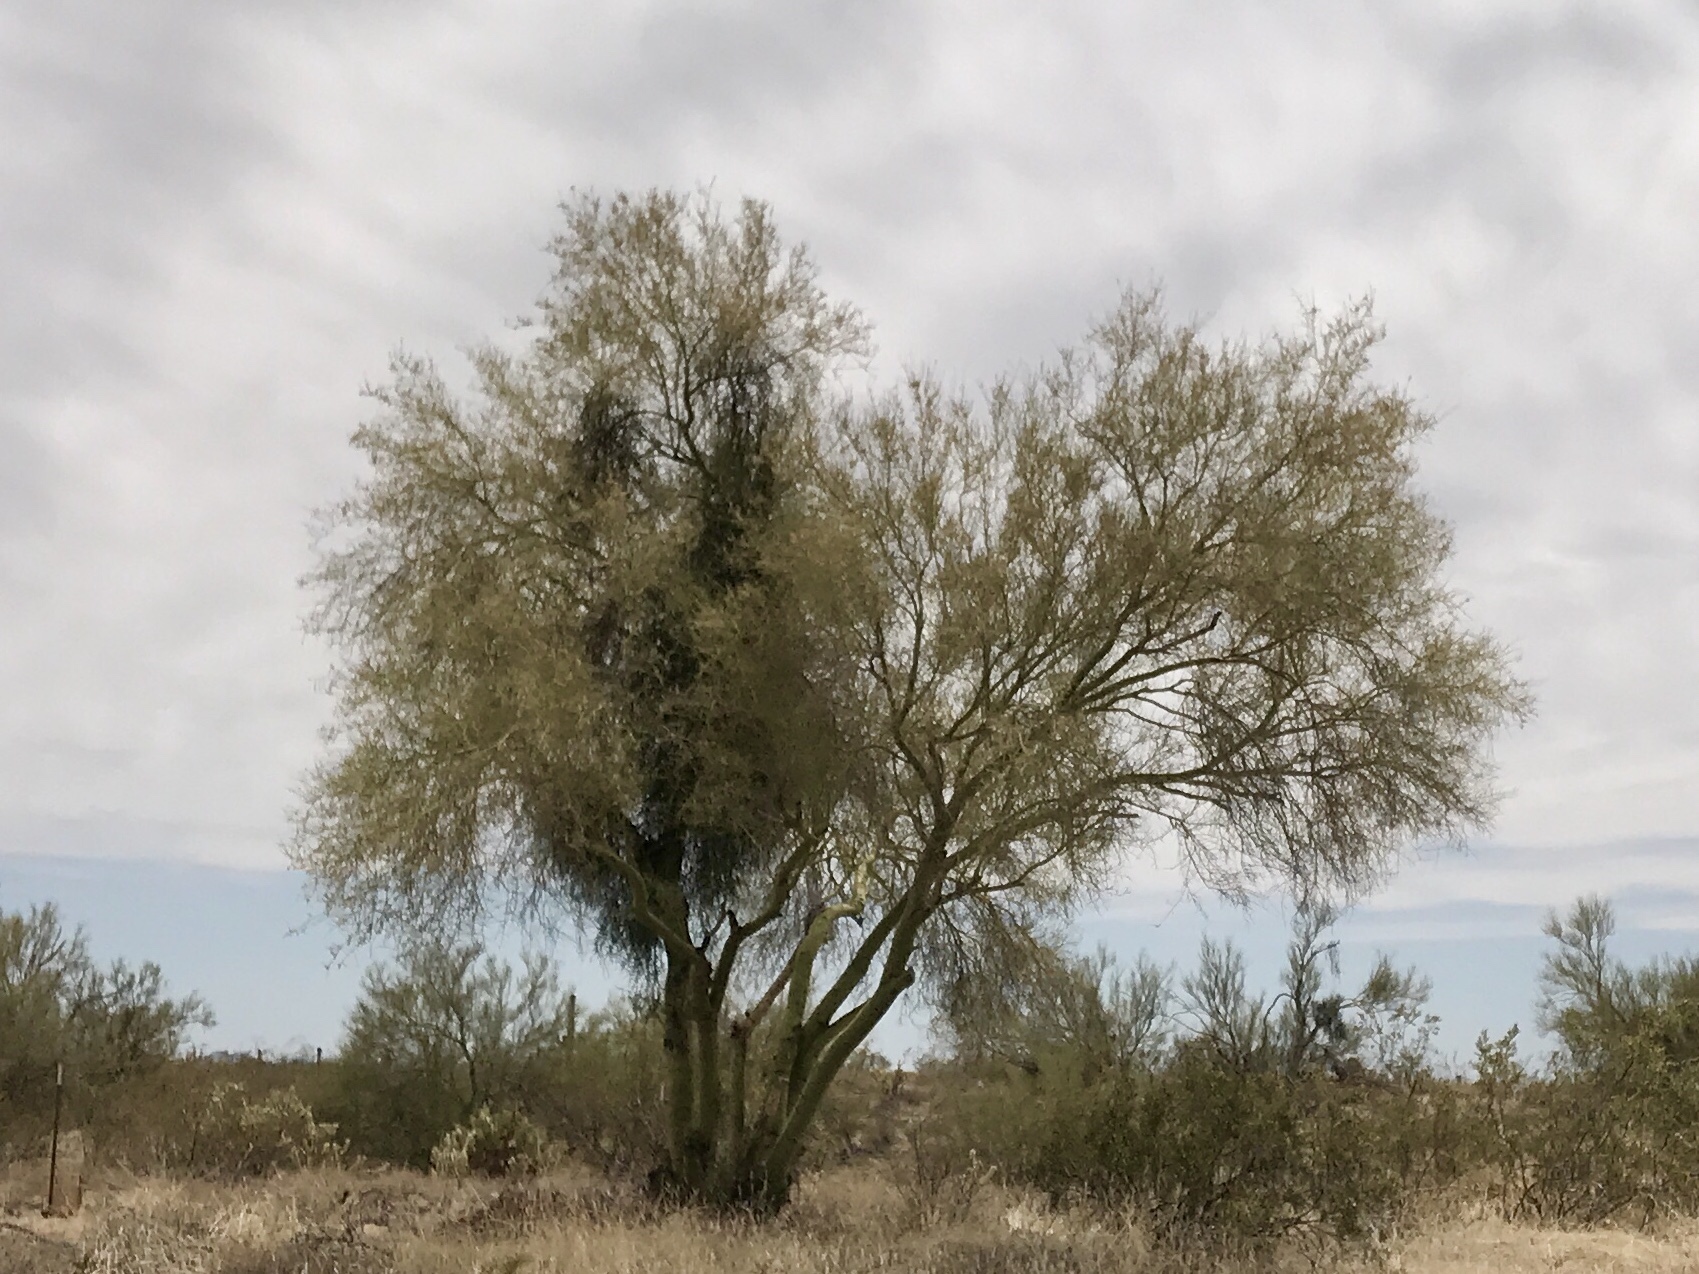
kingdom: Plantae
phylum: Tracheophyta
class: Magnoliopsida
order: Fabales
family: Fabaceae
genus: Parkinsonia
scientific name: Parkinsonia microphylla
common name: Yellow paloverde
